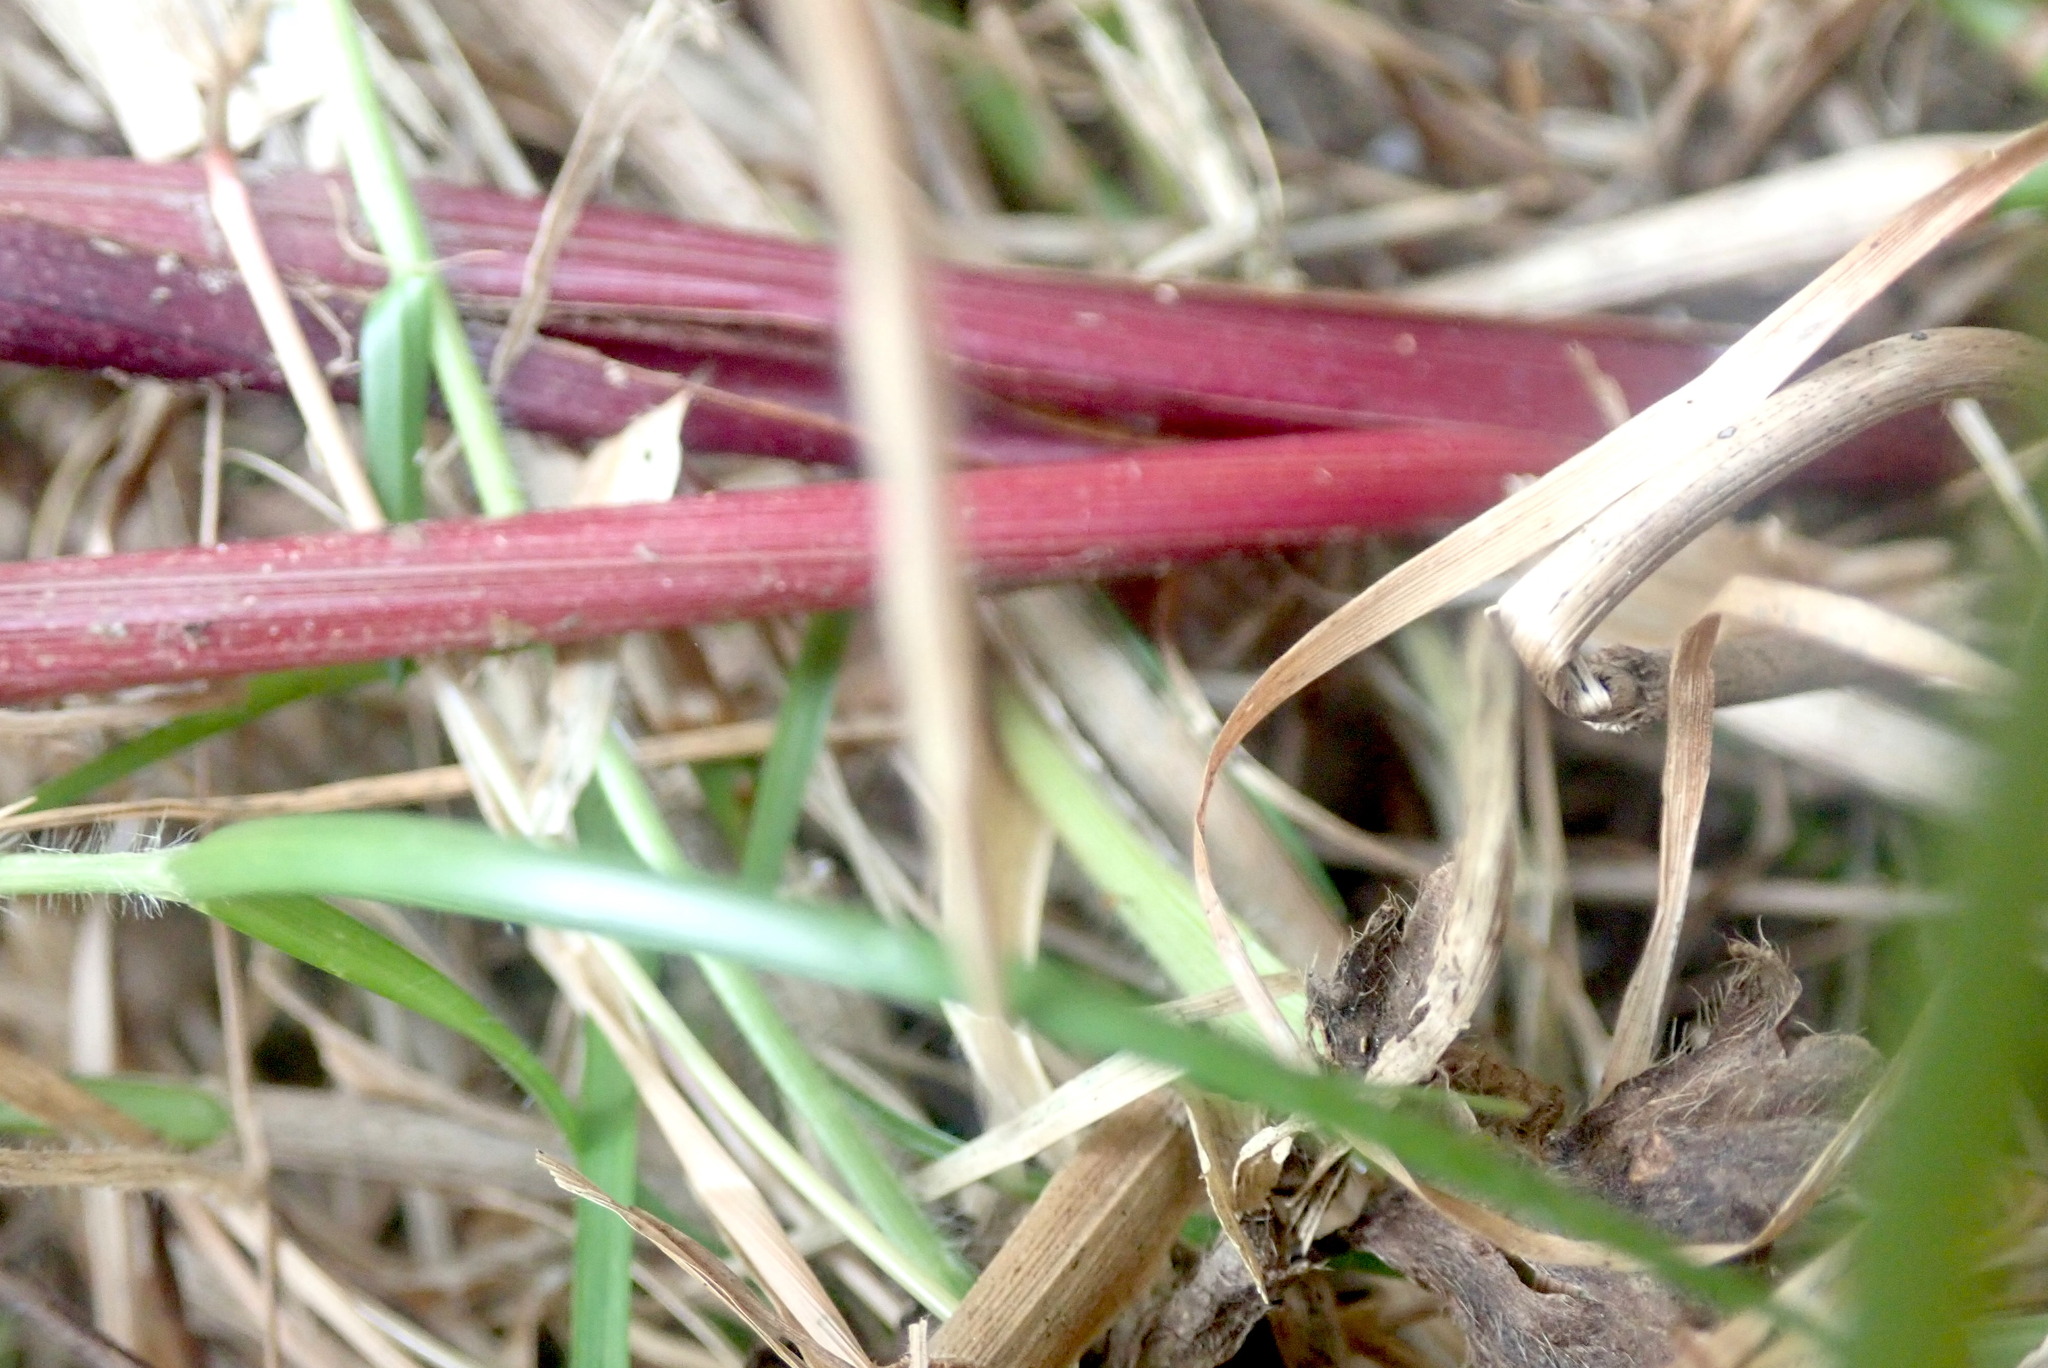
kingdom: Plantae
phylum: Tracheophyta
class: Liliopsida
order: Asparagales
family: Iridaceae
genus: Gladiolus
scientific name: Gladiolus undulatus
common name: Large painted-lady
